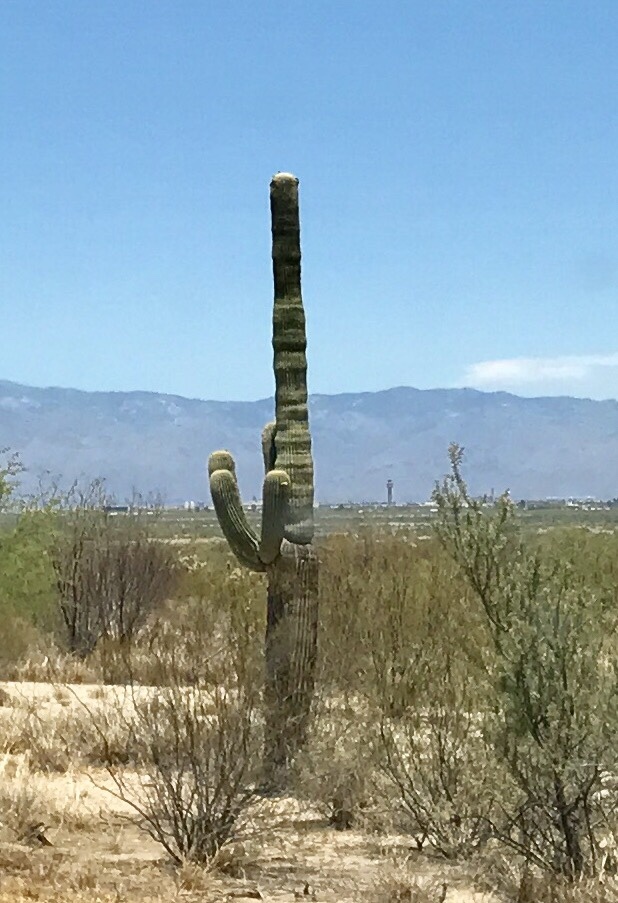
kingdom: Plantae
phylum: Tracheophyta
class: Magnoliopsida
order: Caryophyllales
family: Cactaceae
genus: Carnegiea
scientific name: Carnegiea gigantea
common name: Saguaro
